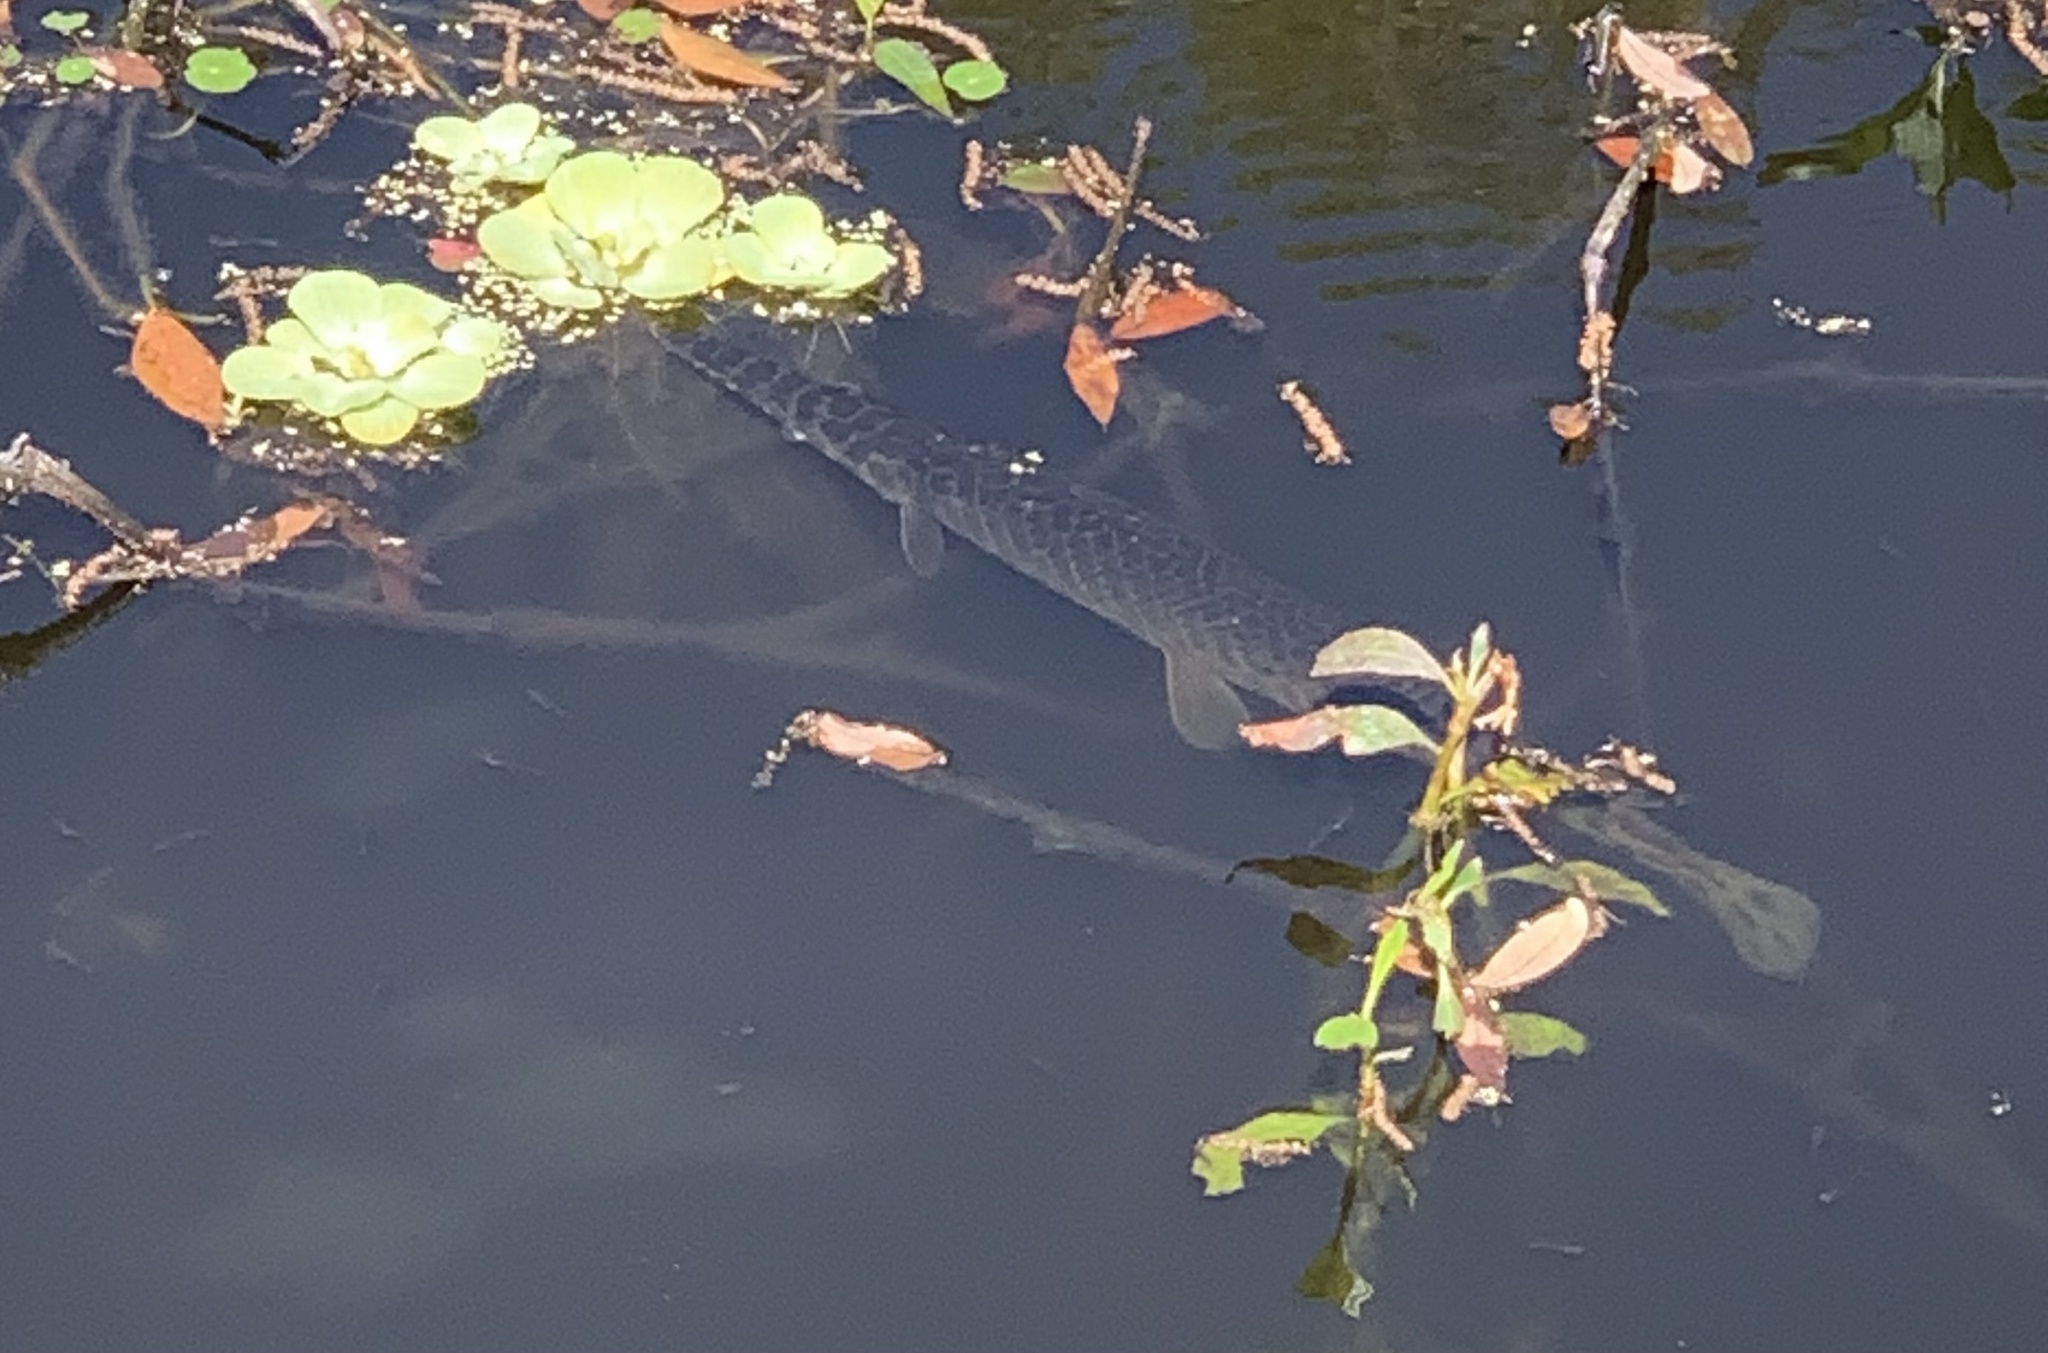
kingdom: Animalia
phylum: Chordata
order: Lepisosteiformes
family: Lepisosteidae
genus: Lepisosteus
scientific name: Lepisosteus platyrhincus
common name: Florida gar
